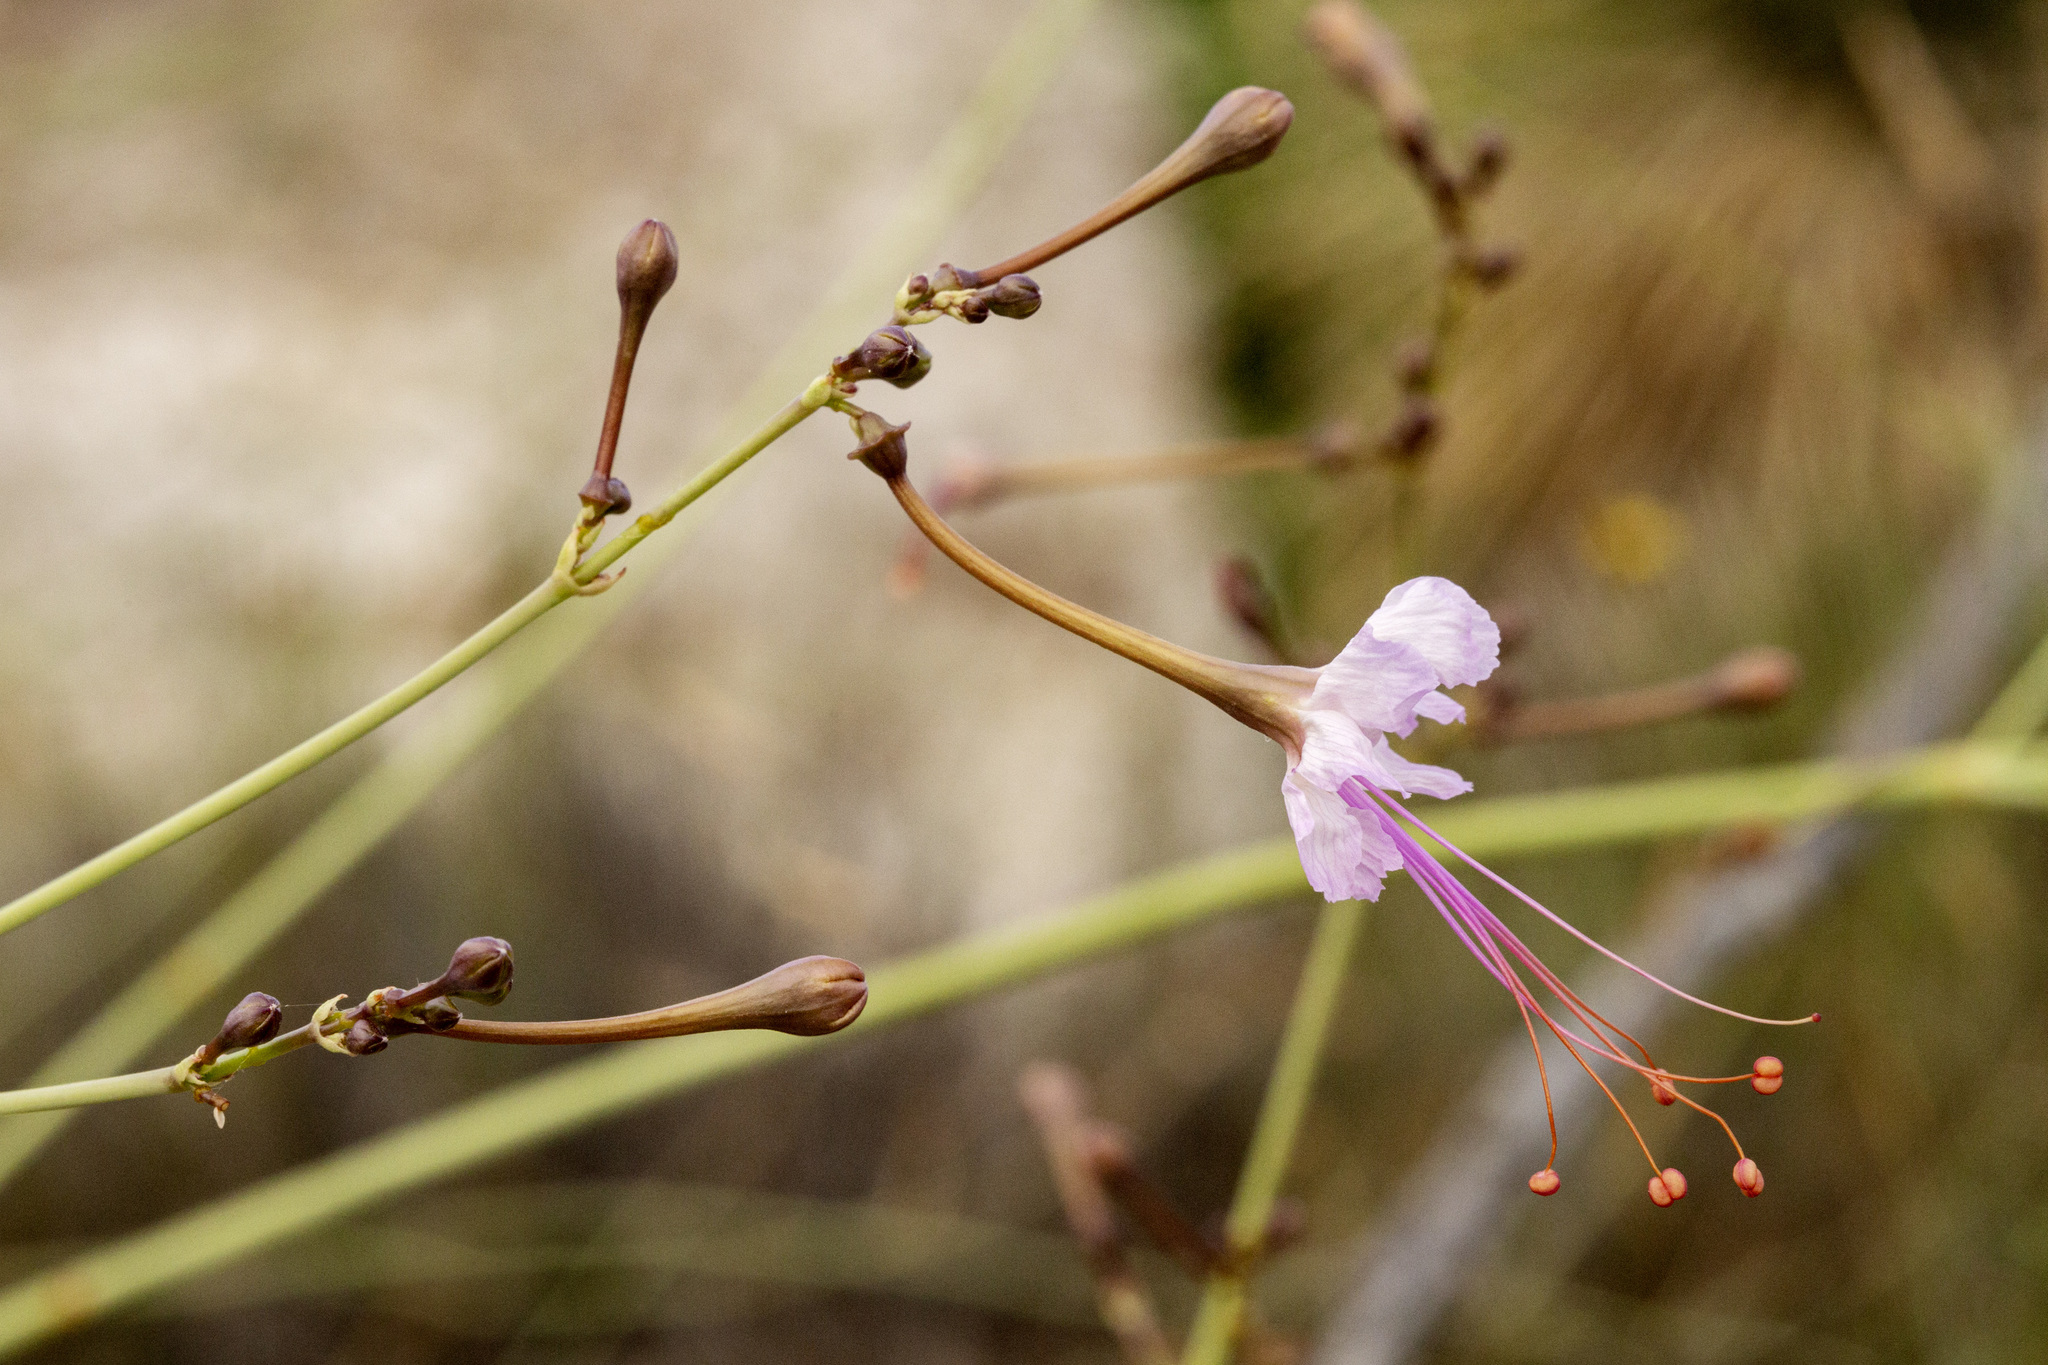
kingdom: Plantae
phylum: Tracheophyta
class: Magnoliopsida
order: Caryophyllales
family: Nyctaginaceae
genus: Anulocaulis
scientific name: Anulocaulis leiosolenus
